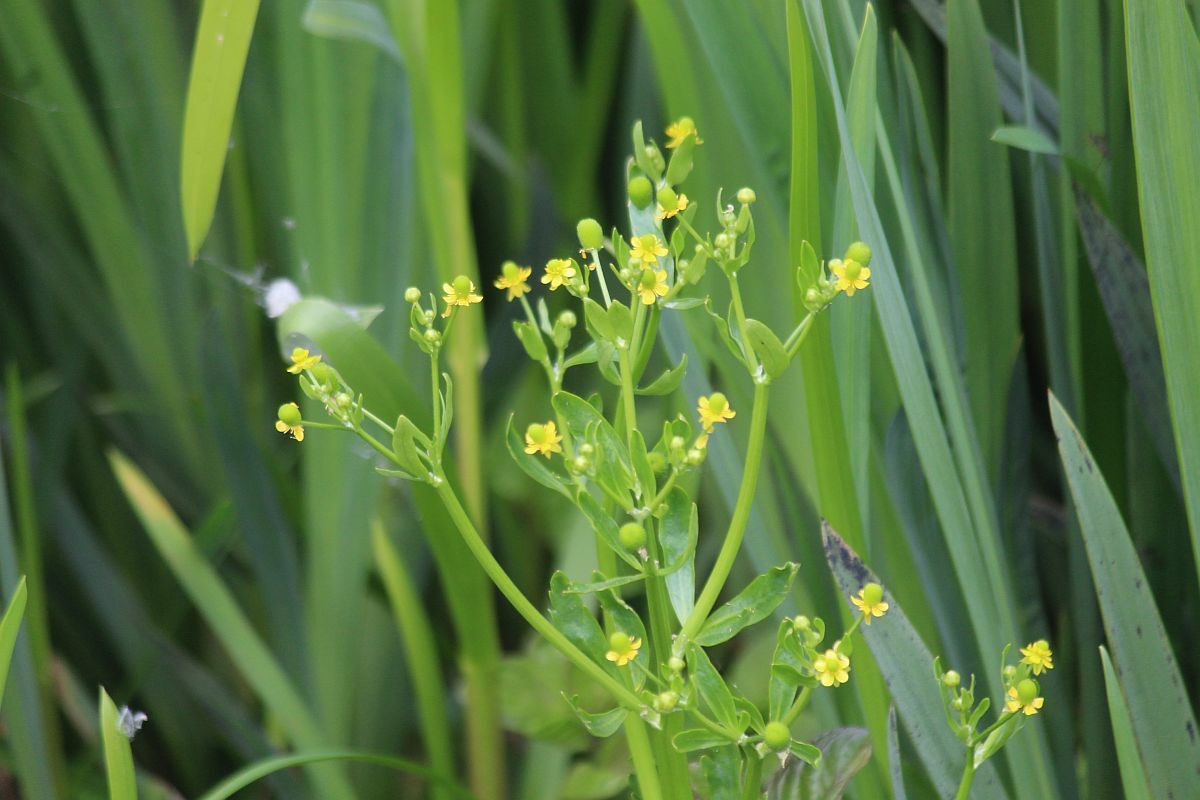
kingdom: Plantae
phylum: Tracheophyta
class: Magnoliopsida
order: Ranunculales
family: Ranunculaceae
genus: Ranunculus
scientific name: Ranunculus sceleratus
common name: Celery-leaved buttercup
